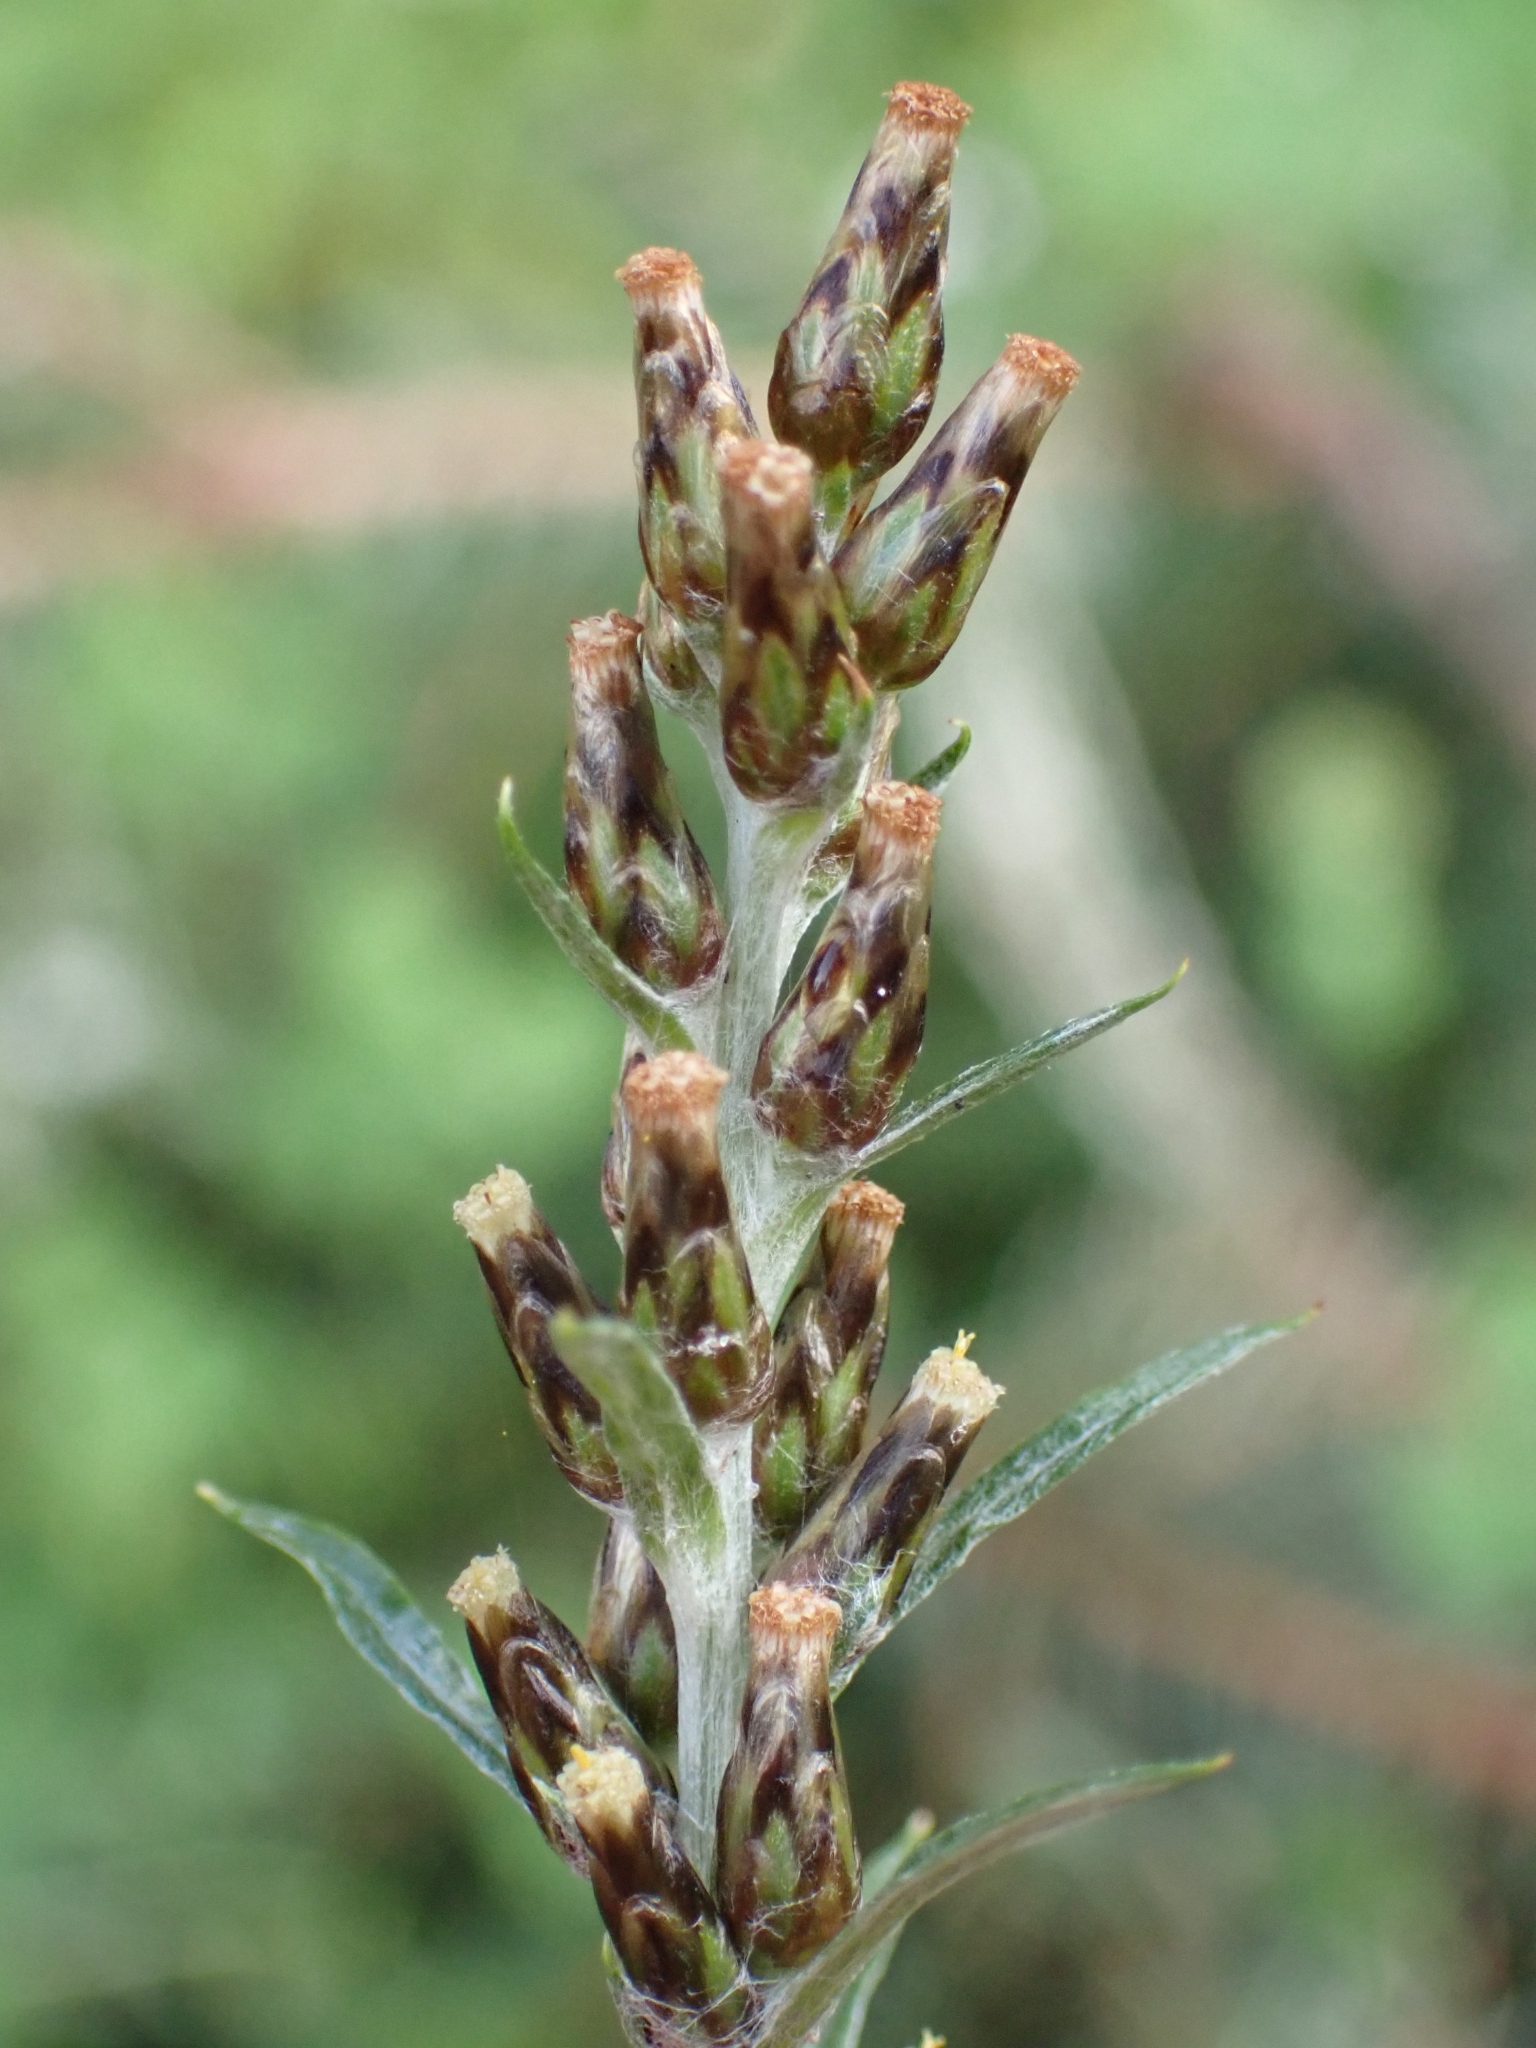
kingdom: Plantae
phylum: Tracheophyta
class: Magnoliopsida
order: Asterales
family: Asteraceae
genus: Omalotheca
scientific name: Omalotheca sylvatica
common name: Heath cudweed
